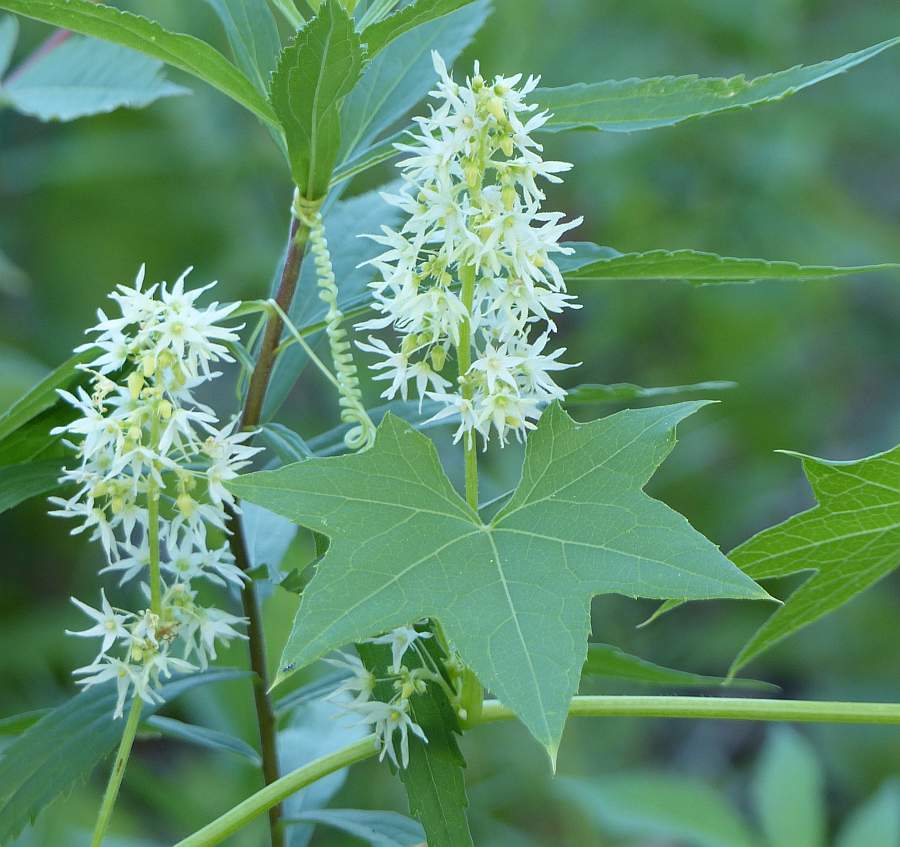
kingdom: Plantae
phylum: Tracheophyta
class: Magnoliopsida
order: Cucurbitales
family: Cucurbitaceae
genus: Echinocystis
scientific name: Echinocystis lobata
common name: Wild cucumber
